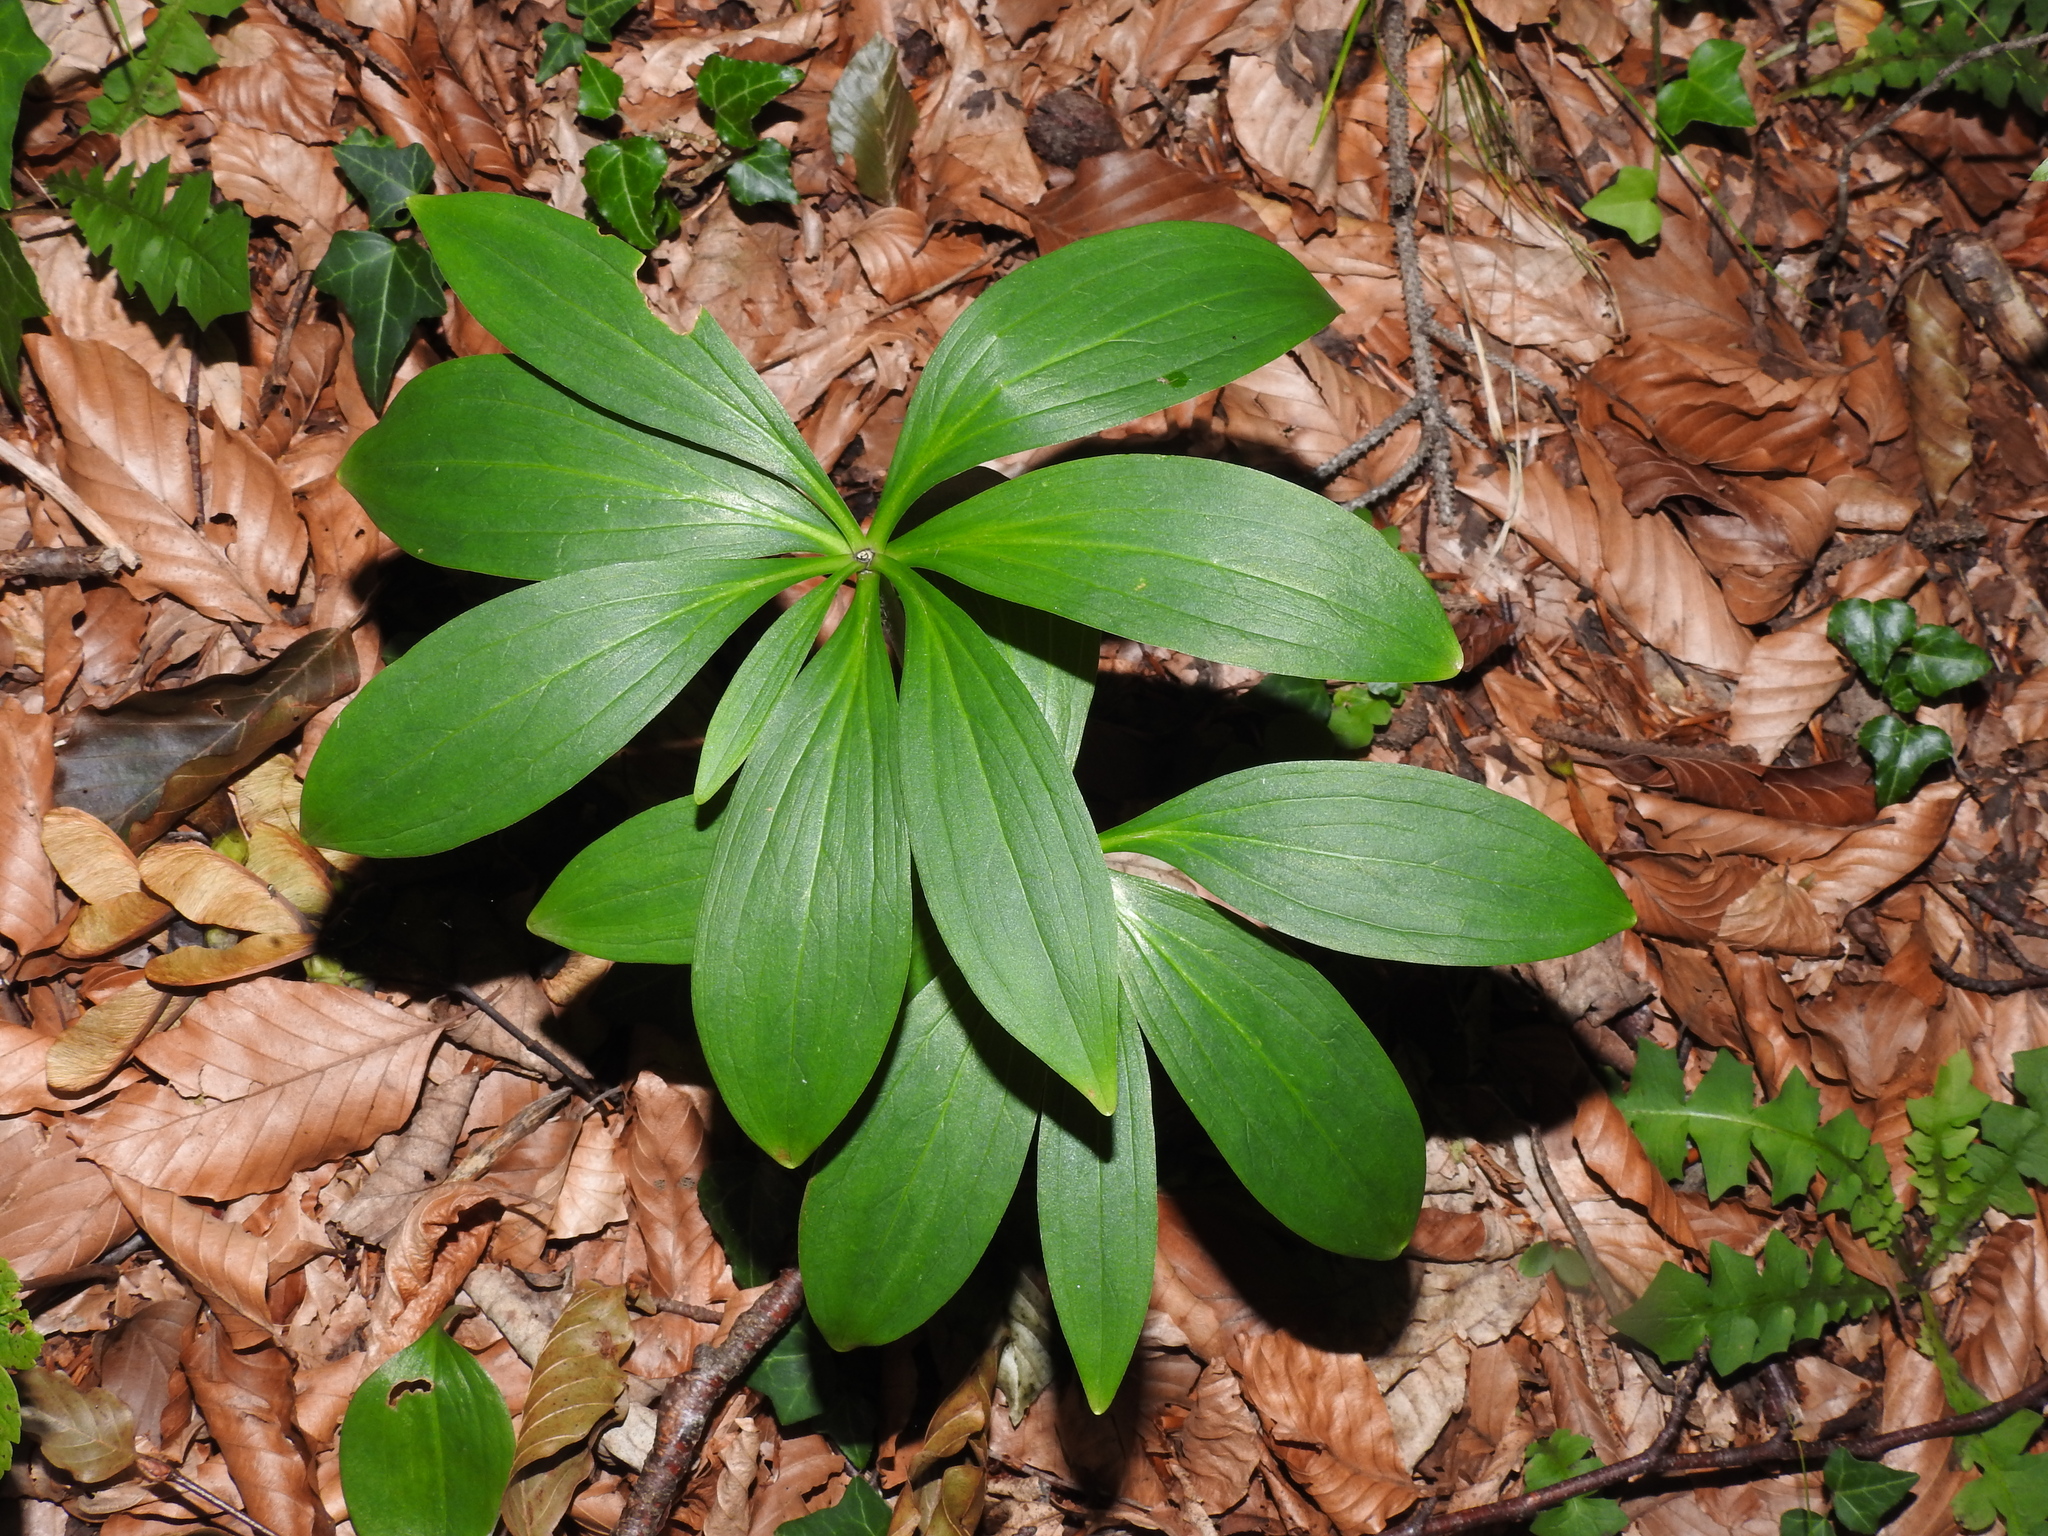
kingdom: Plantae
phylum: Tracheophyta
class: Liliopsida
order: Liliales
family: Liliaceae
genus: Lilium
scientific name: Lilium martagon
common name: Martagon lily
